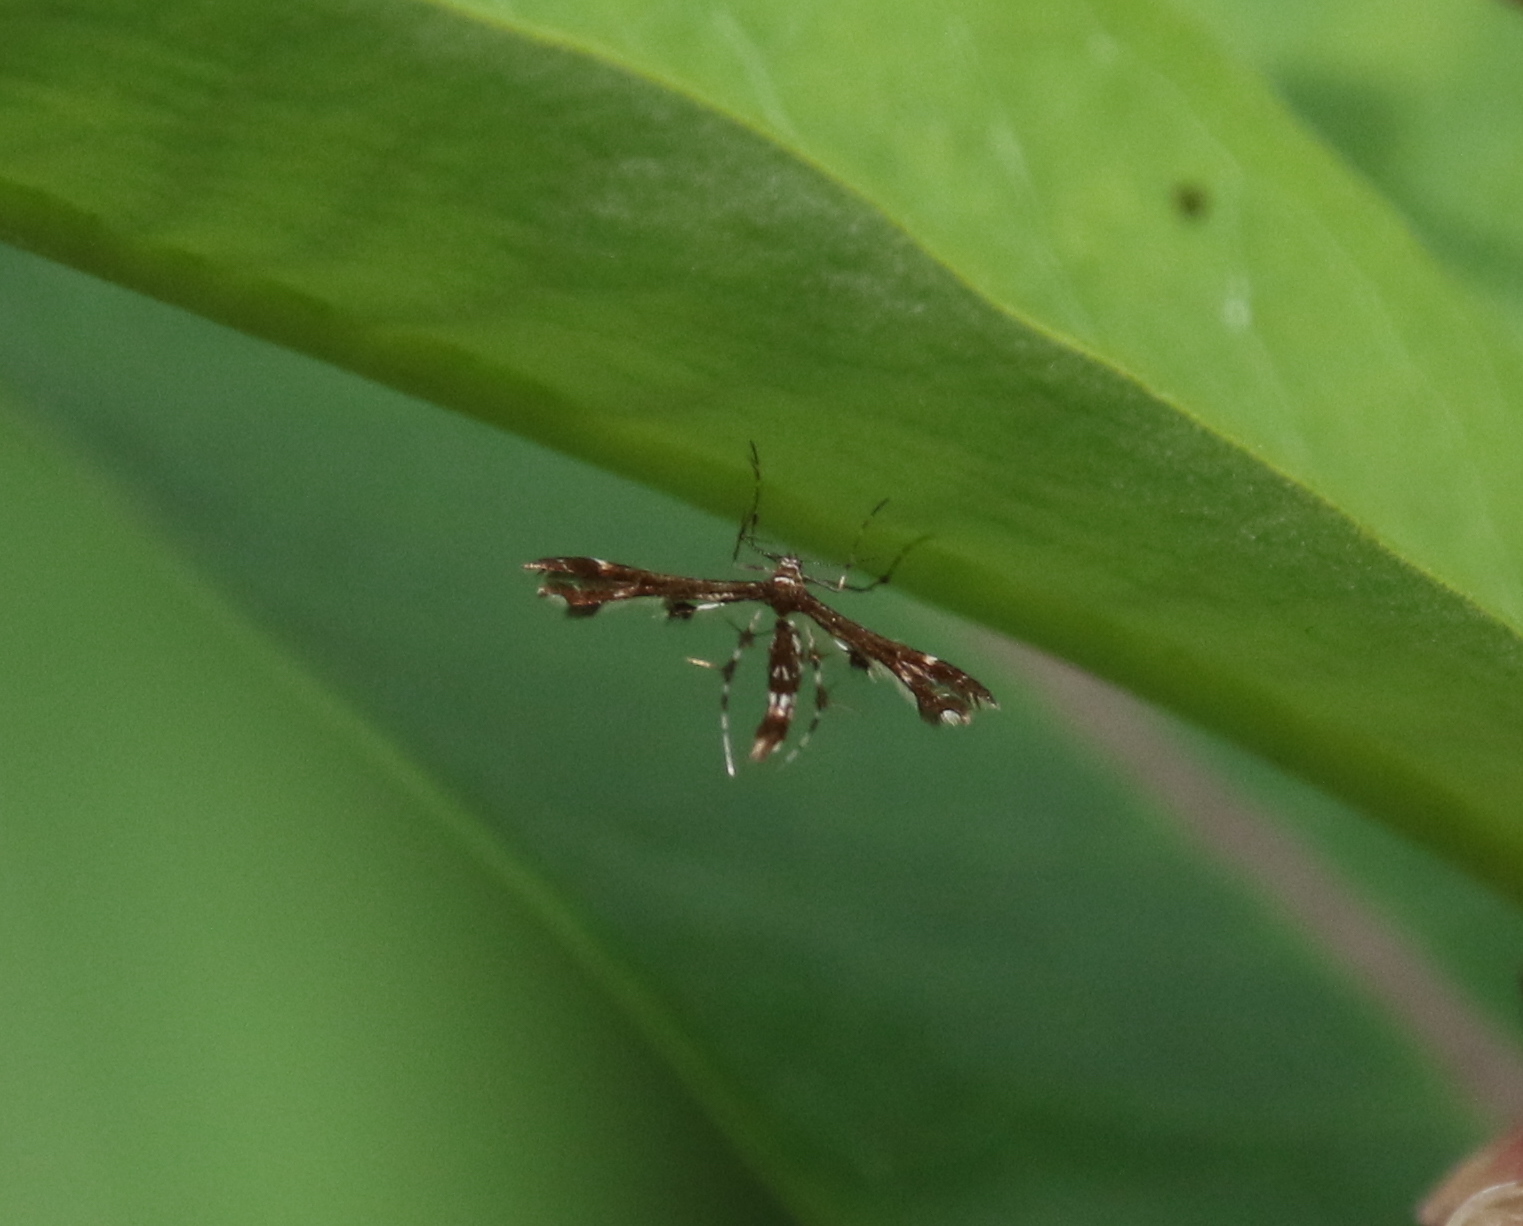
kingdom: Animalia
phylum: Arthropoda
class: Insecta
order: Lepidoptera
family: Pterophoridae
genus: Geina
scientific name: Geina
